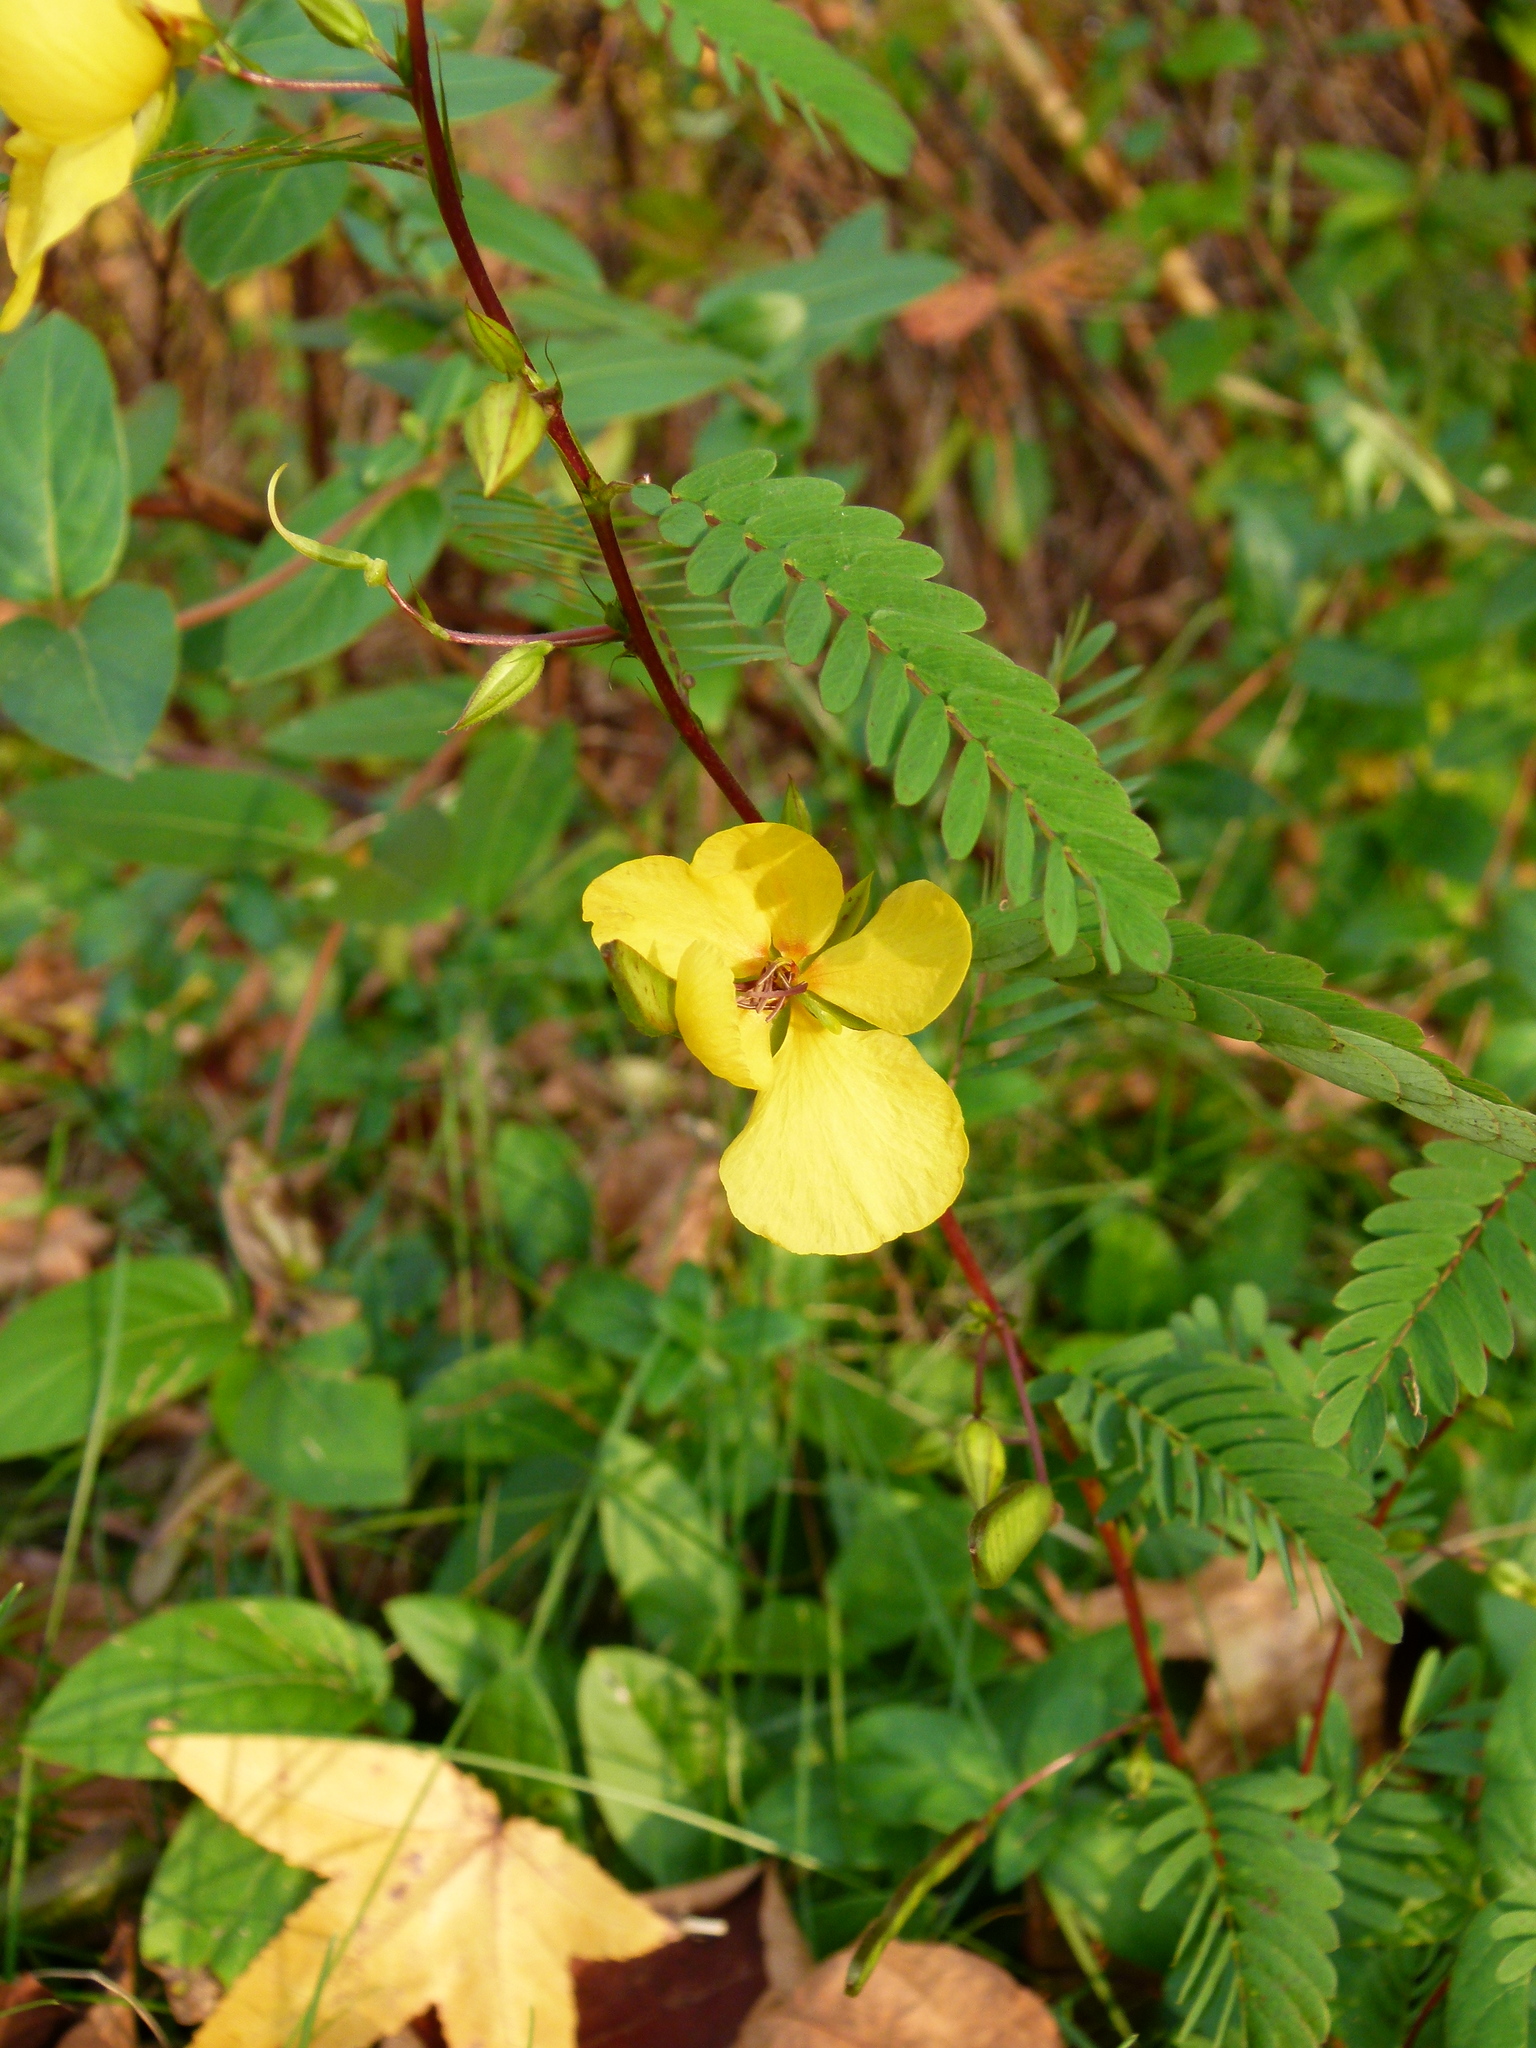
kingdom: Plantae
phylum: Tracheophyta
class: Magnoliopsida
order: Fabales
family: Fabaceae
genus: Chamaecrista
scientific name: Chamaecrista fasciculata
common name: Golden cassia
